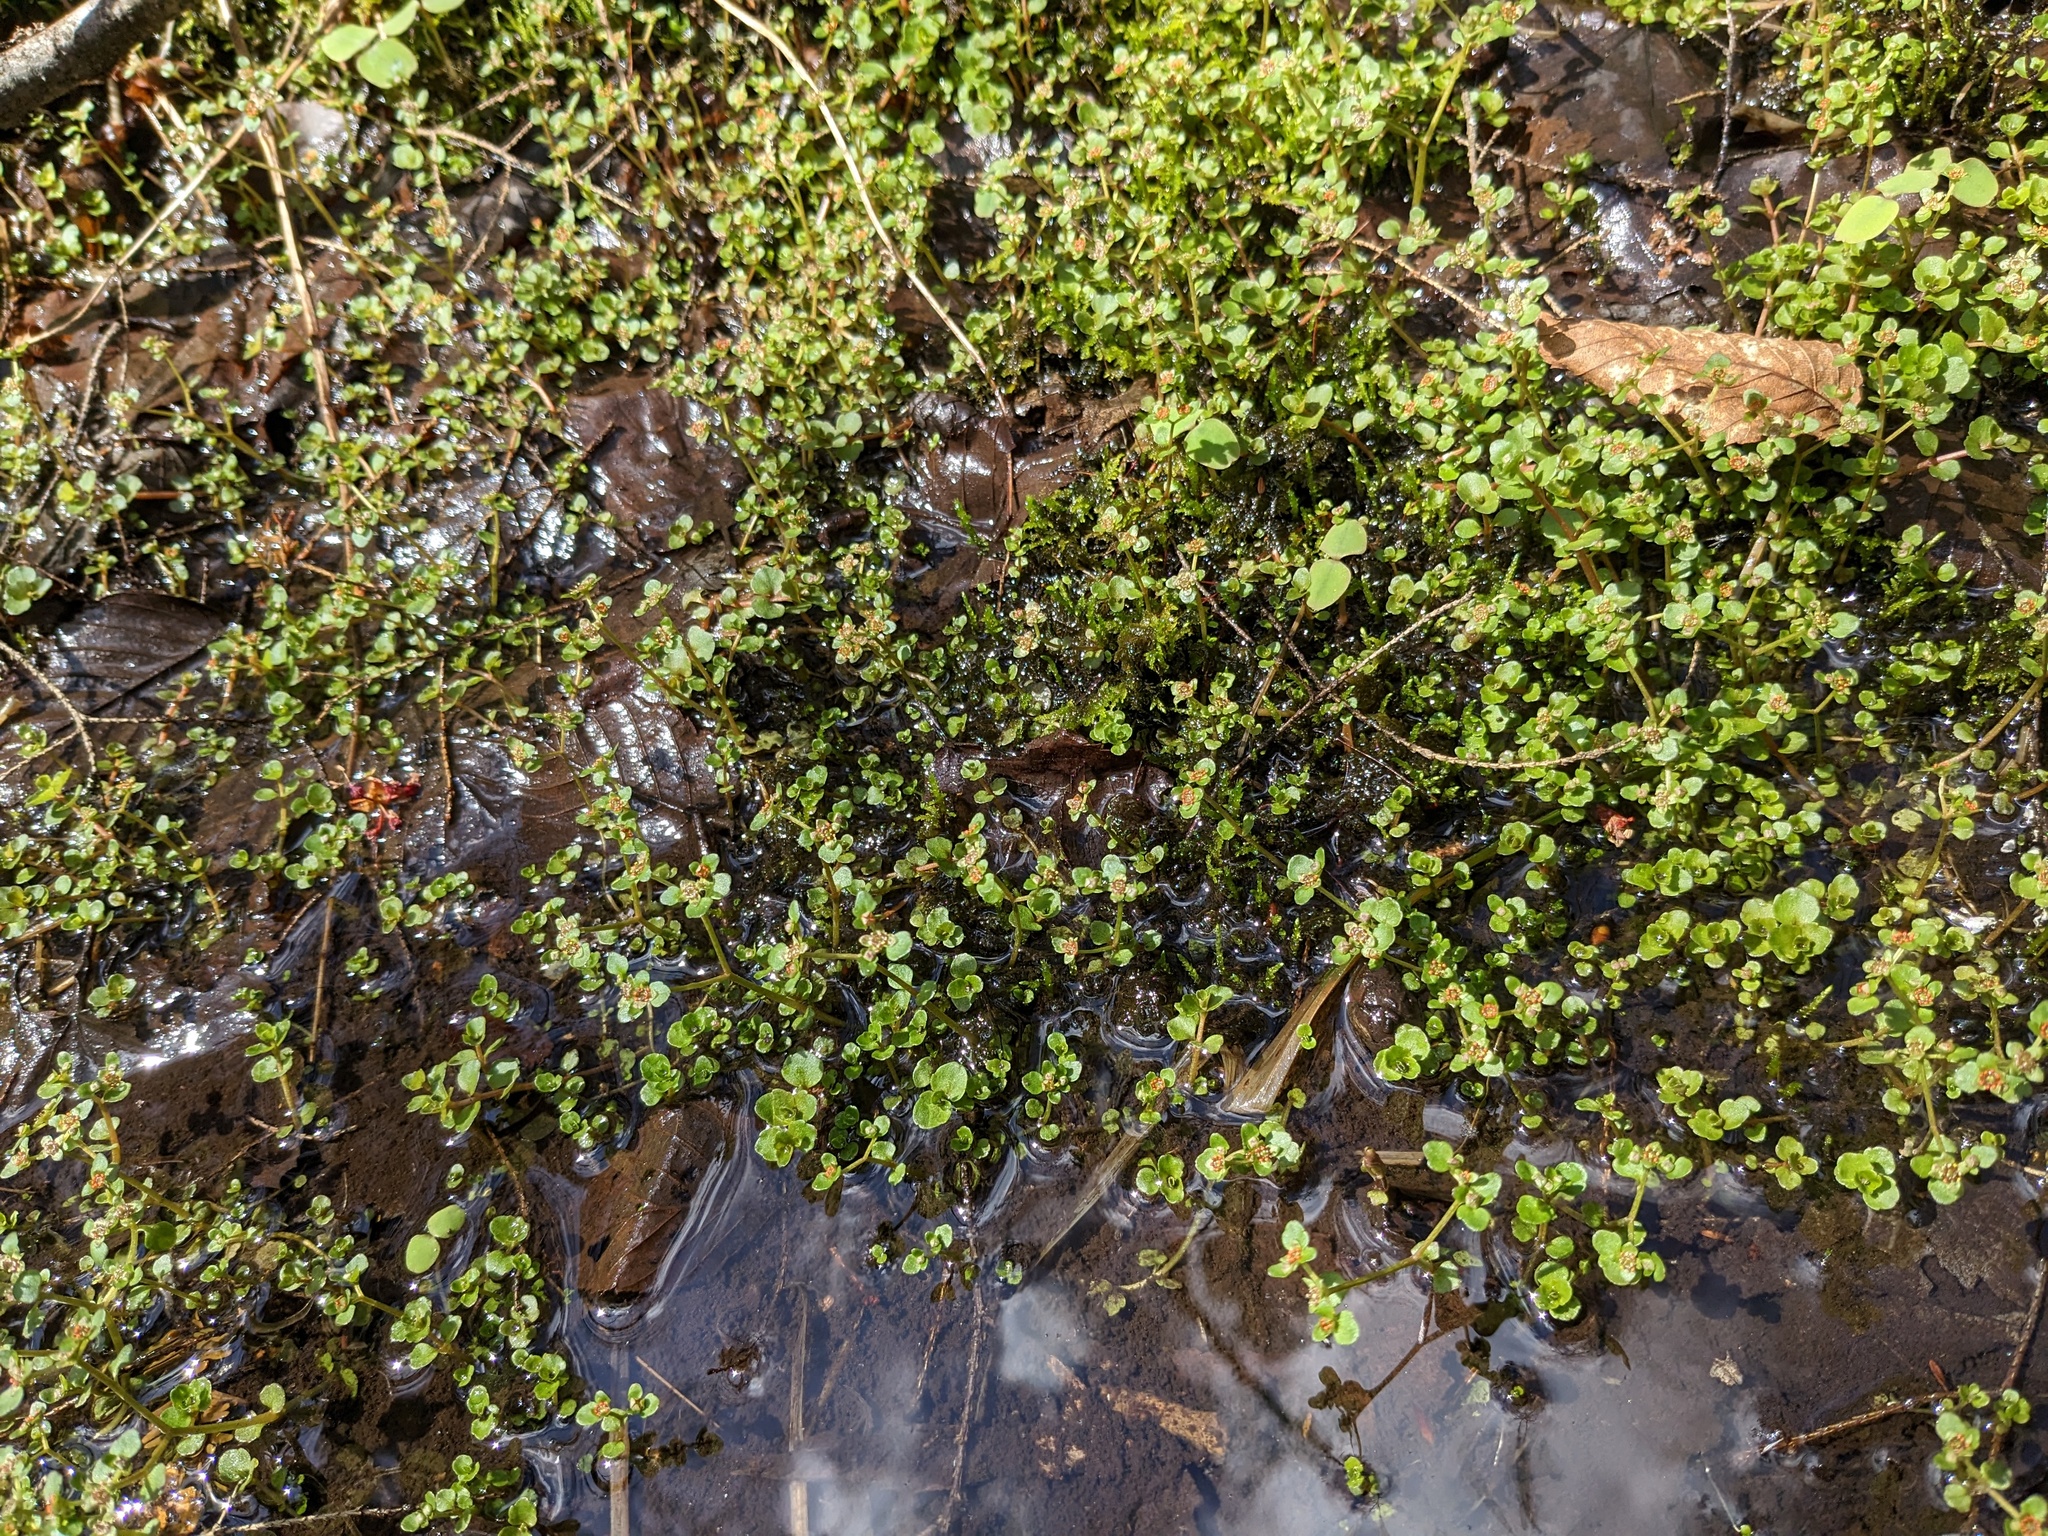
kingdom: Plantae
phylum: Tracheophyta
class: Magnoliopsida
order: Saxifragales
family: Saxifragaceae
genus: Chrysosplenium
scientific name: Chrysosplenium americanum
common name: American golden-saxifrage
